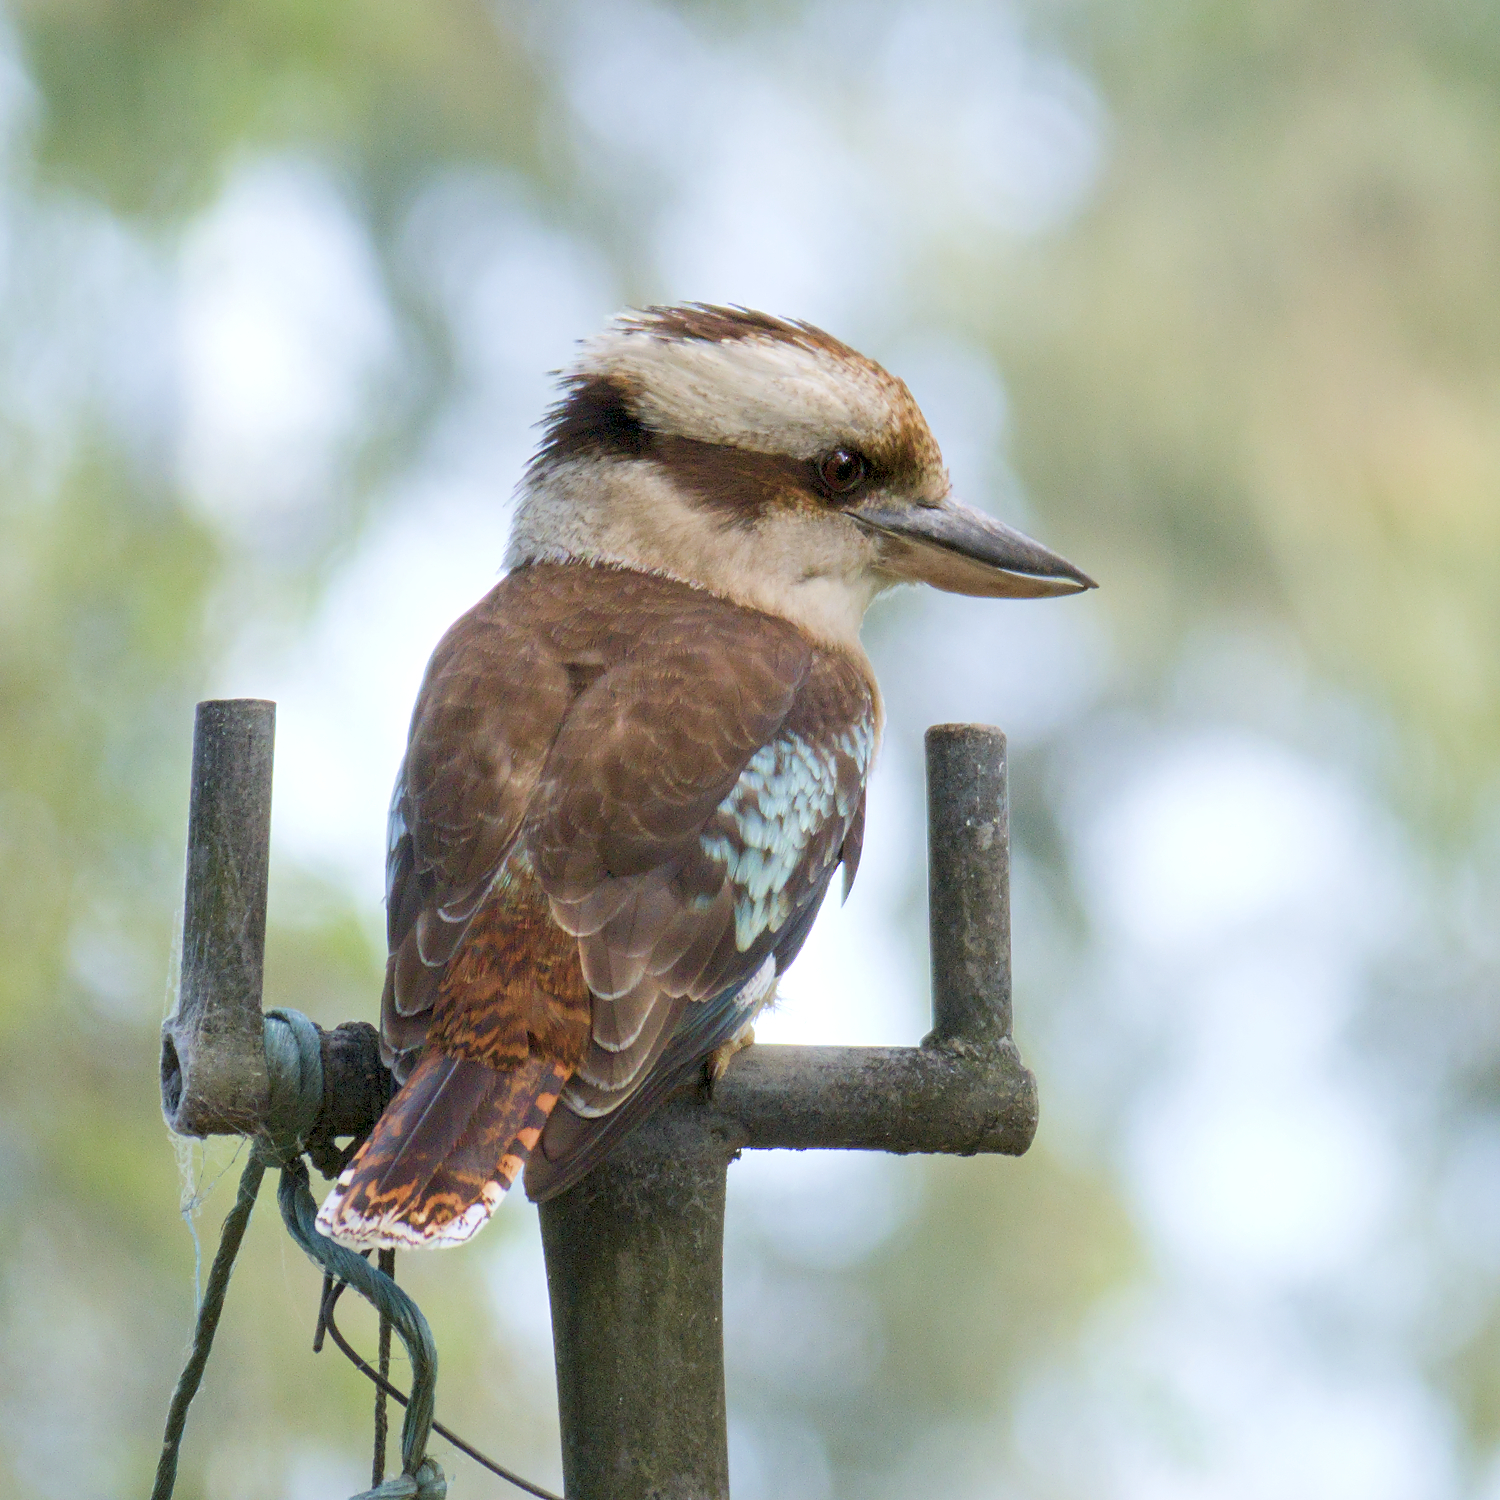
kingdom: Animalia
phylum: Chordata
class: Aves
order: Coraciiformes
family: Alcedinidae
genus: Dacelo
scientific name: Dacelo novaeguineae
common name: Laughing kookaburra
